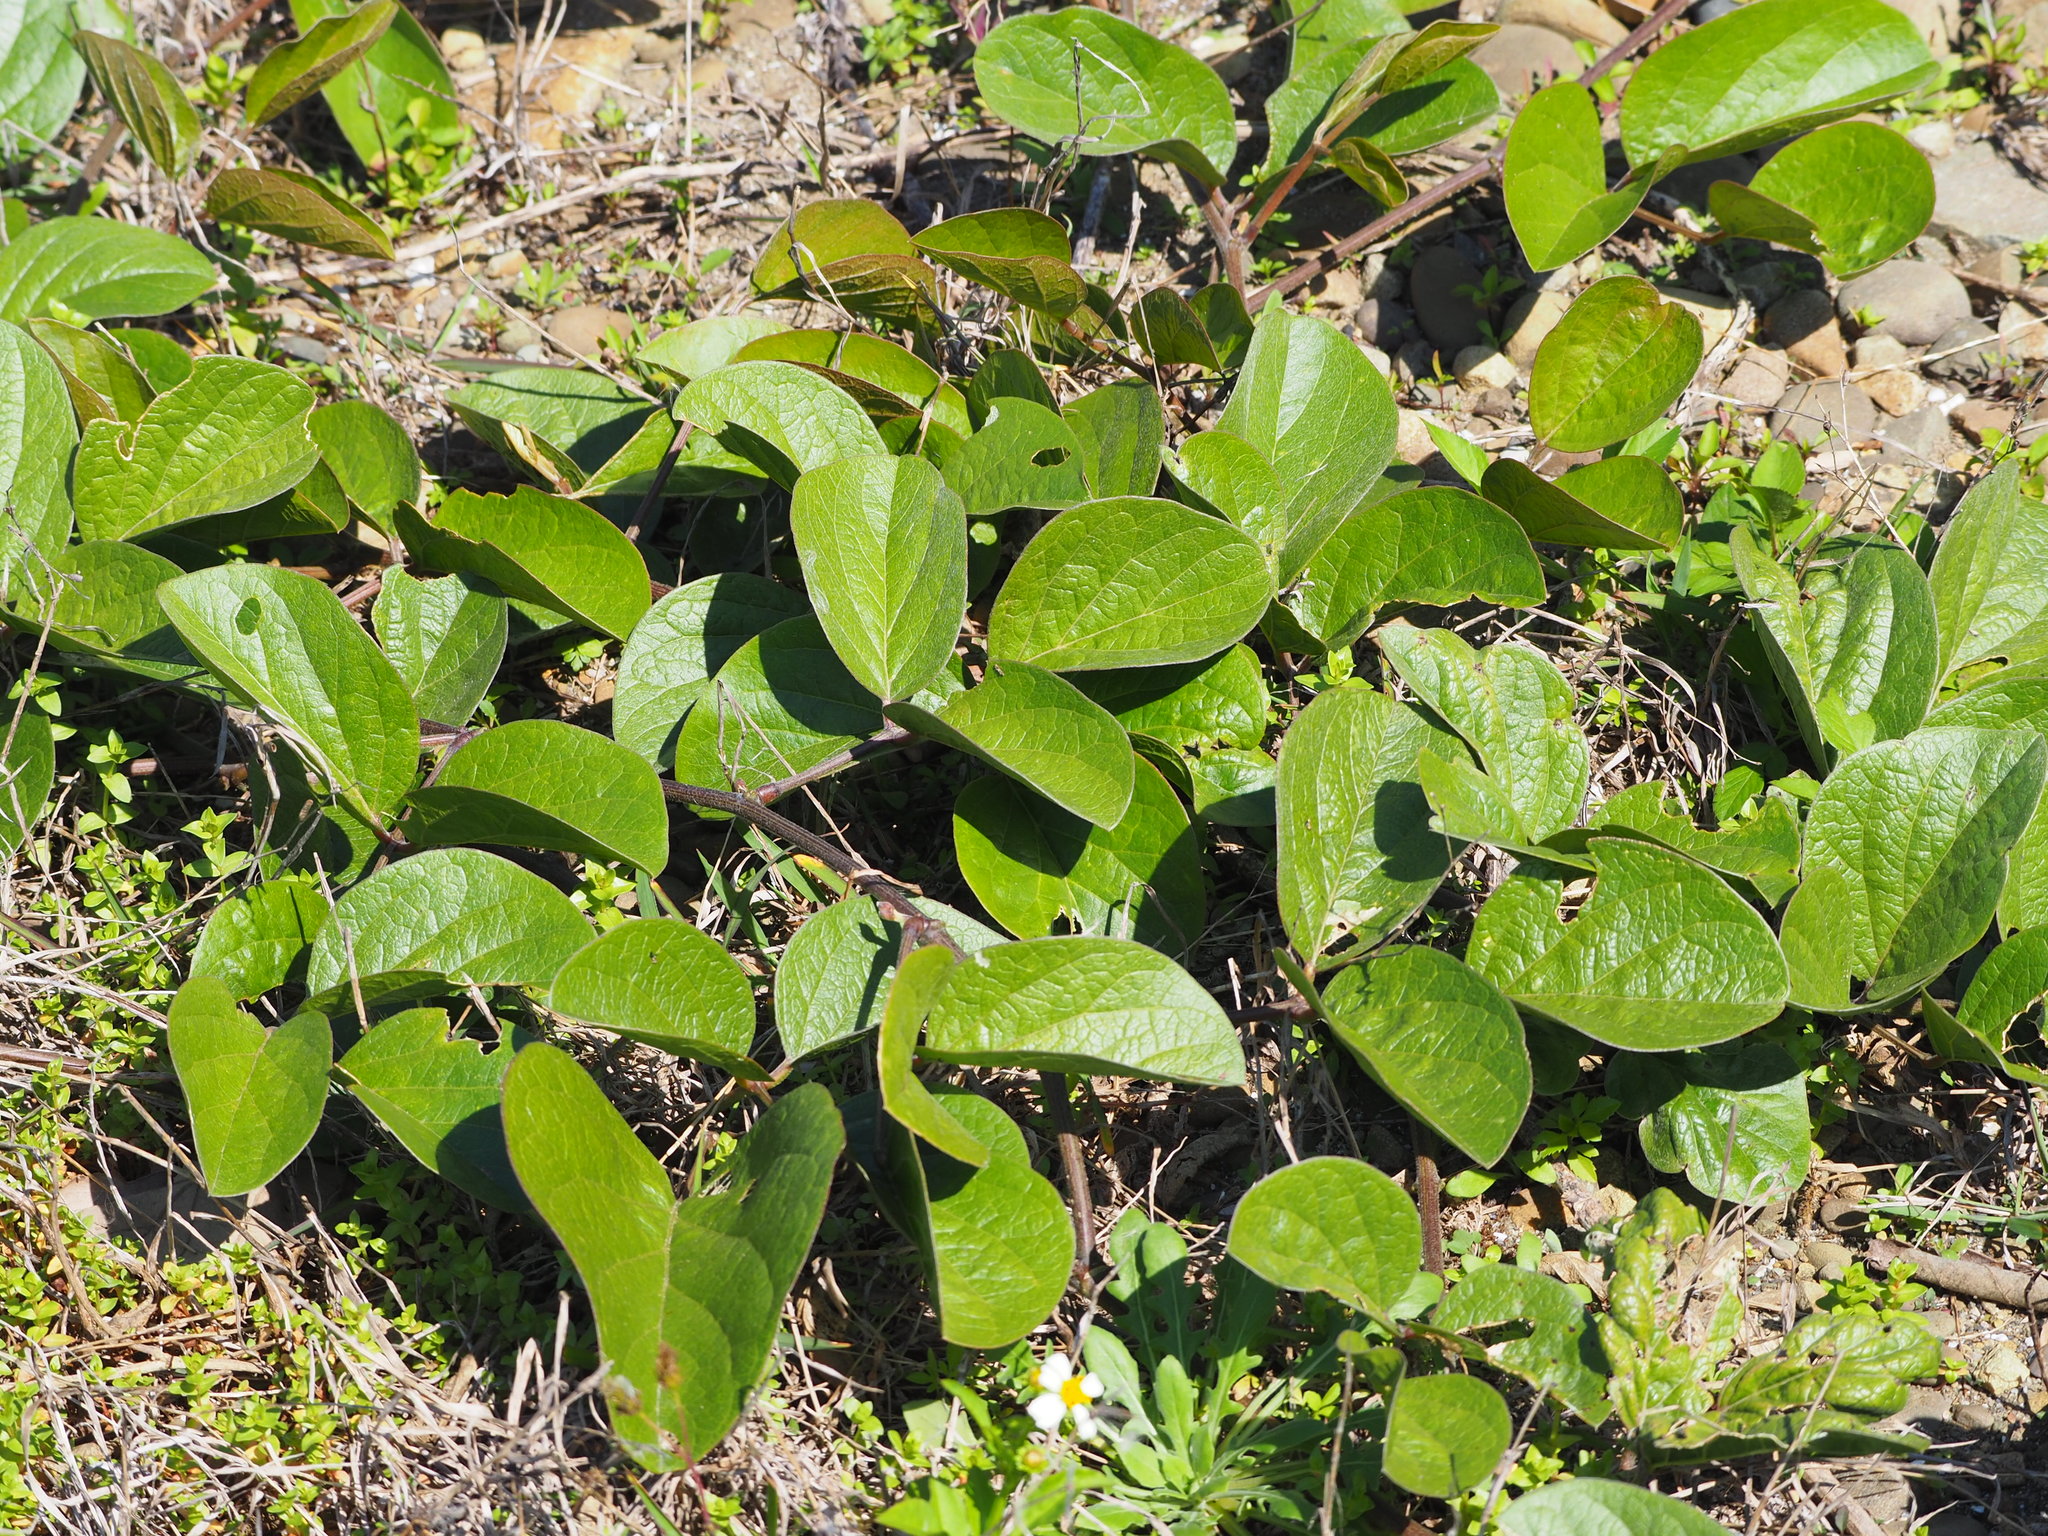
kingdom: Plantae
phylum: Tracheophyta
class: Magnoliopsida
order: Fabales
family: Fabaceae
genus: Canavalia
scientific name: Canavalia rosea
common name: Beach-bean
